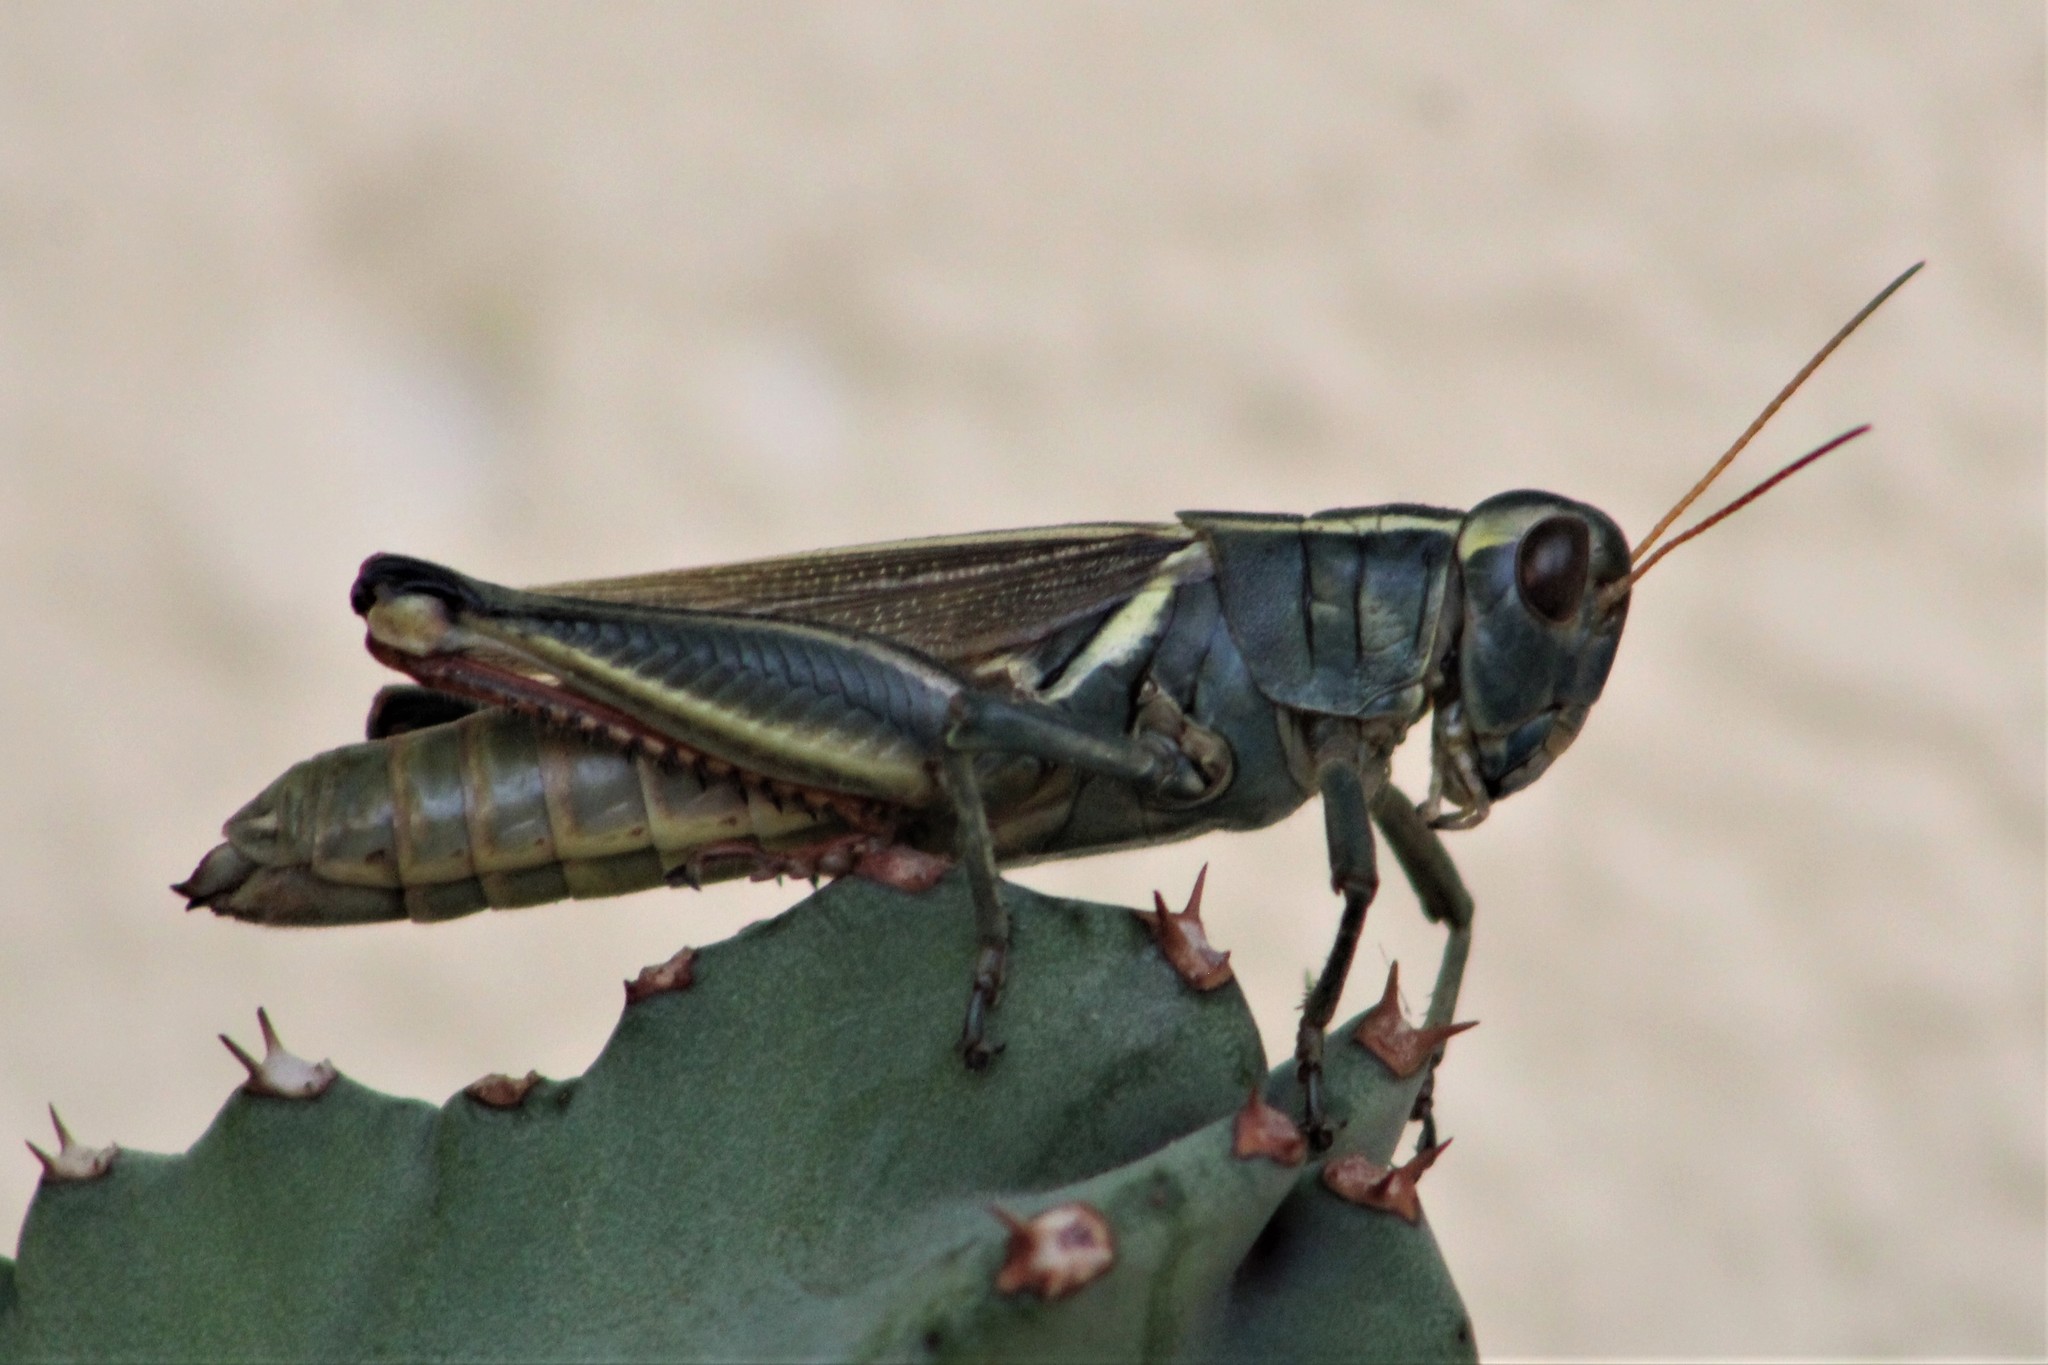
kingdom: Animalia
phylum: Arthropoda
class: Insecta
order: Orthoptera
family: Acrididae
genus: Melanoplus
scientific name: Melanoplus thomasi
